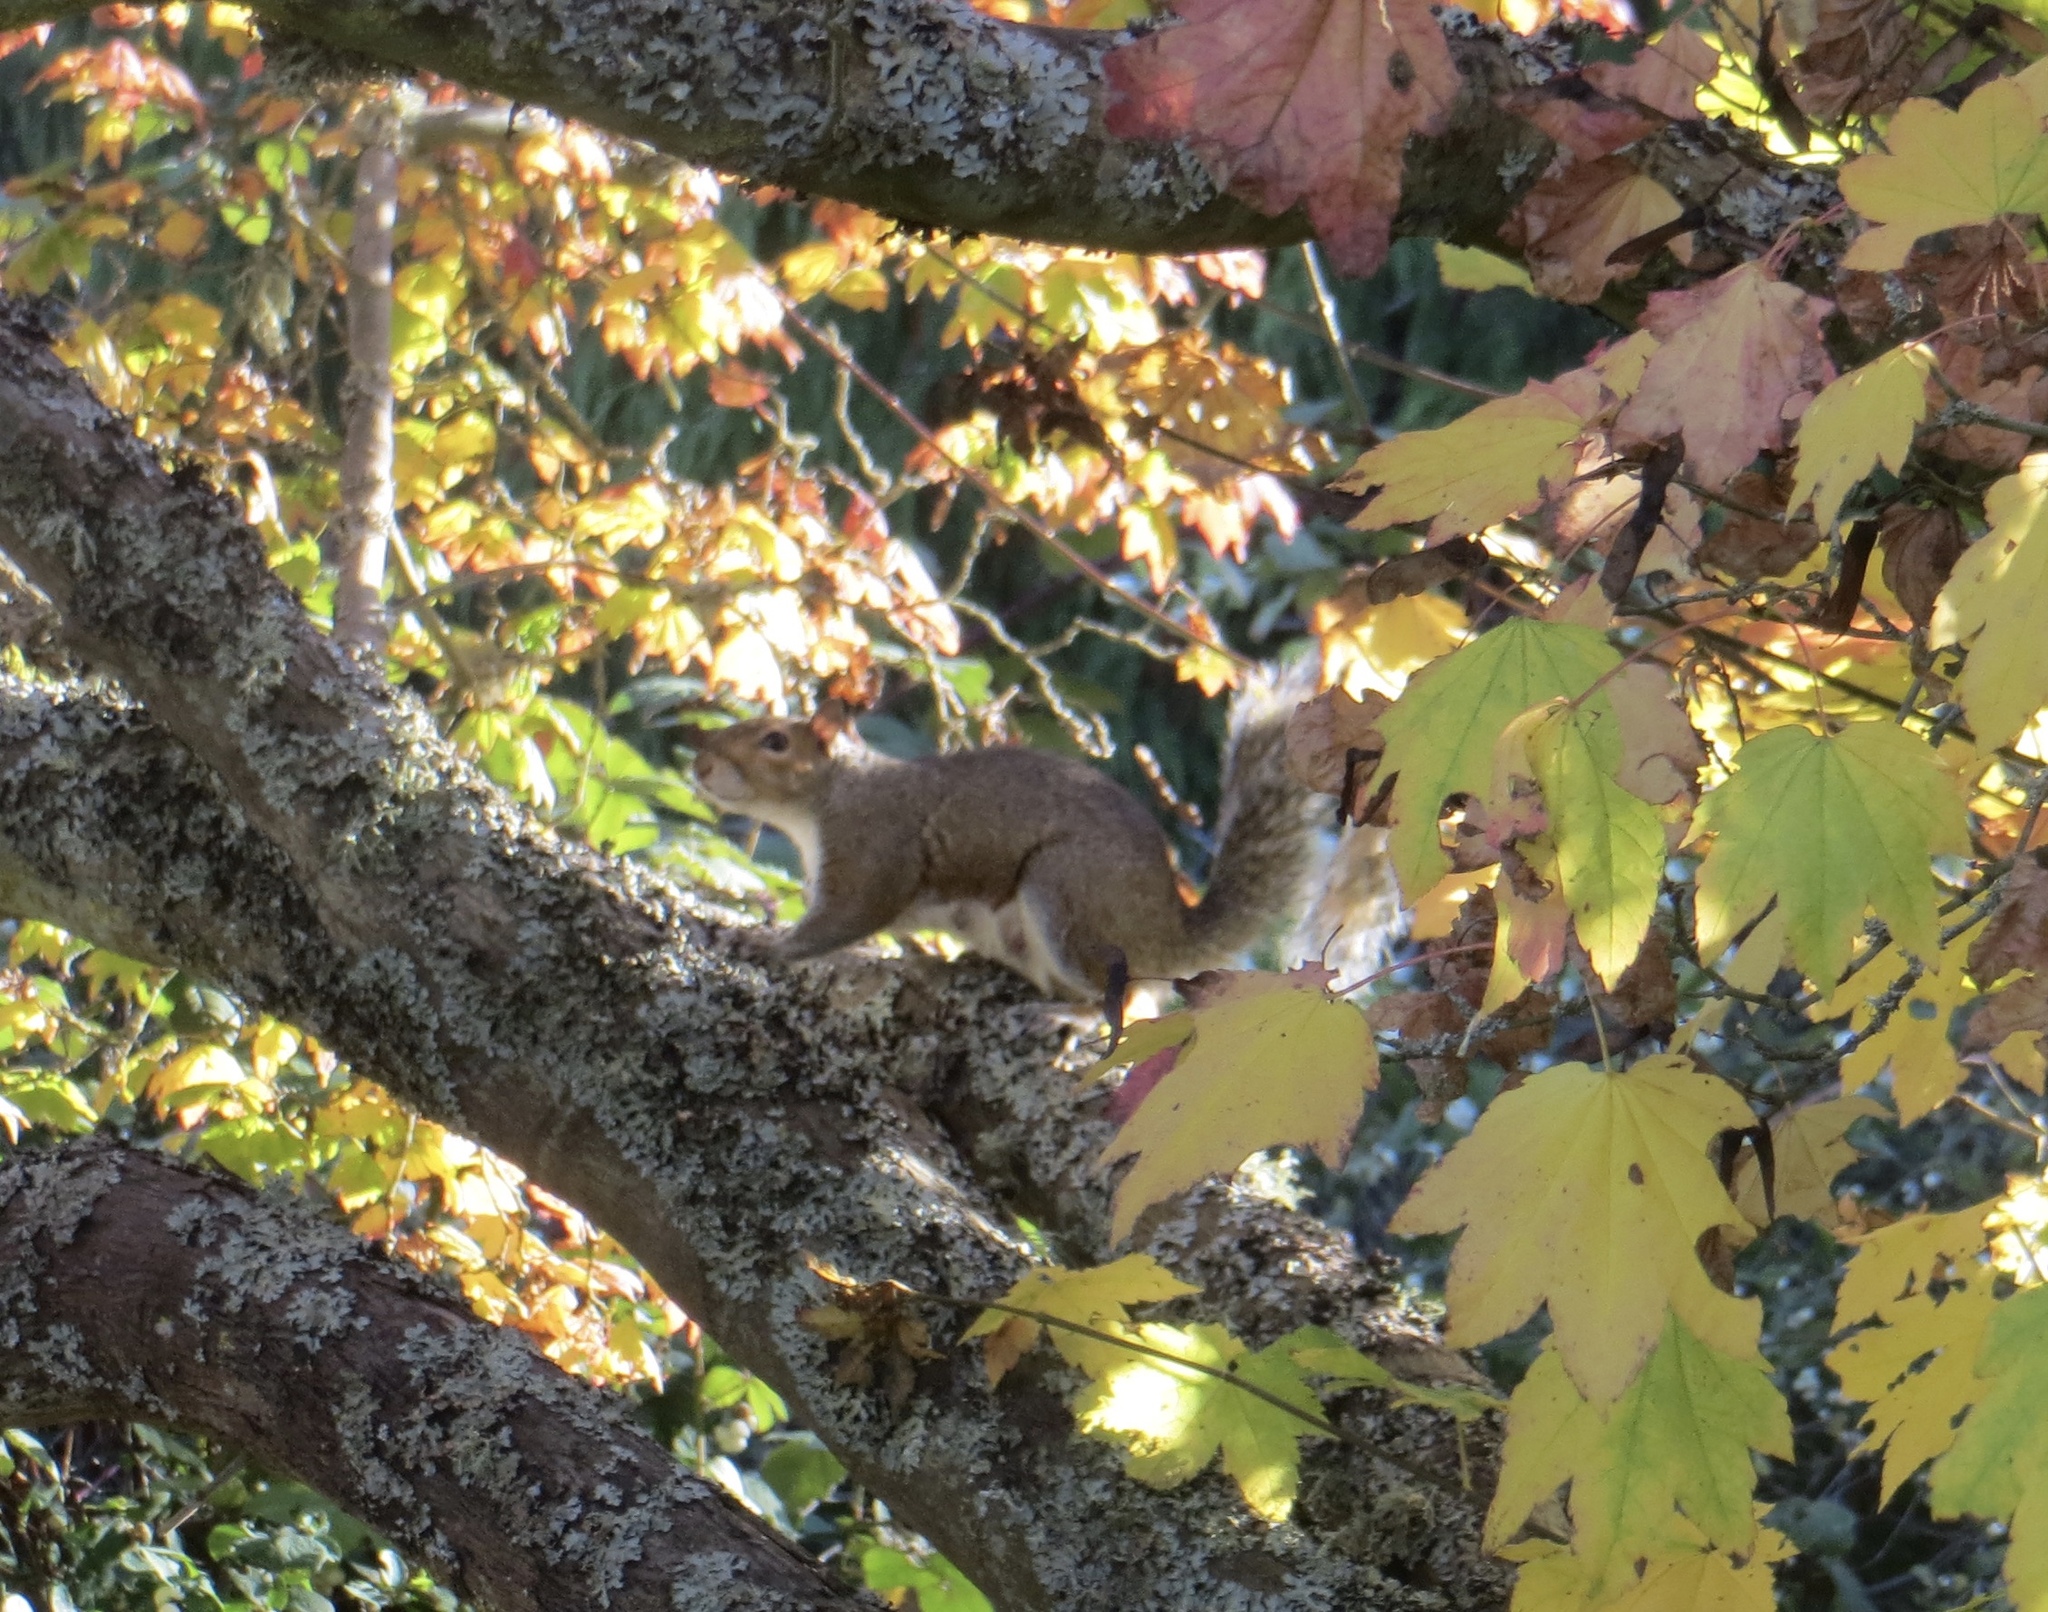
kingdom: Animalia
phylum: Chordata
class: Mammalia
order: Rodentia
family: Sciuridae
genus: Sciurus
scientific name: Sciurus carolinensis
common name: Eastern gray squirrel
